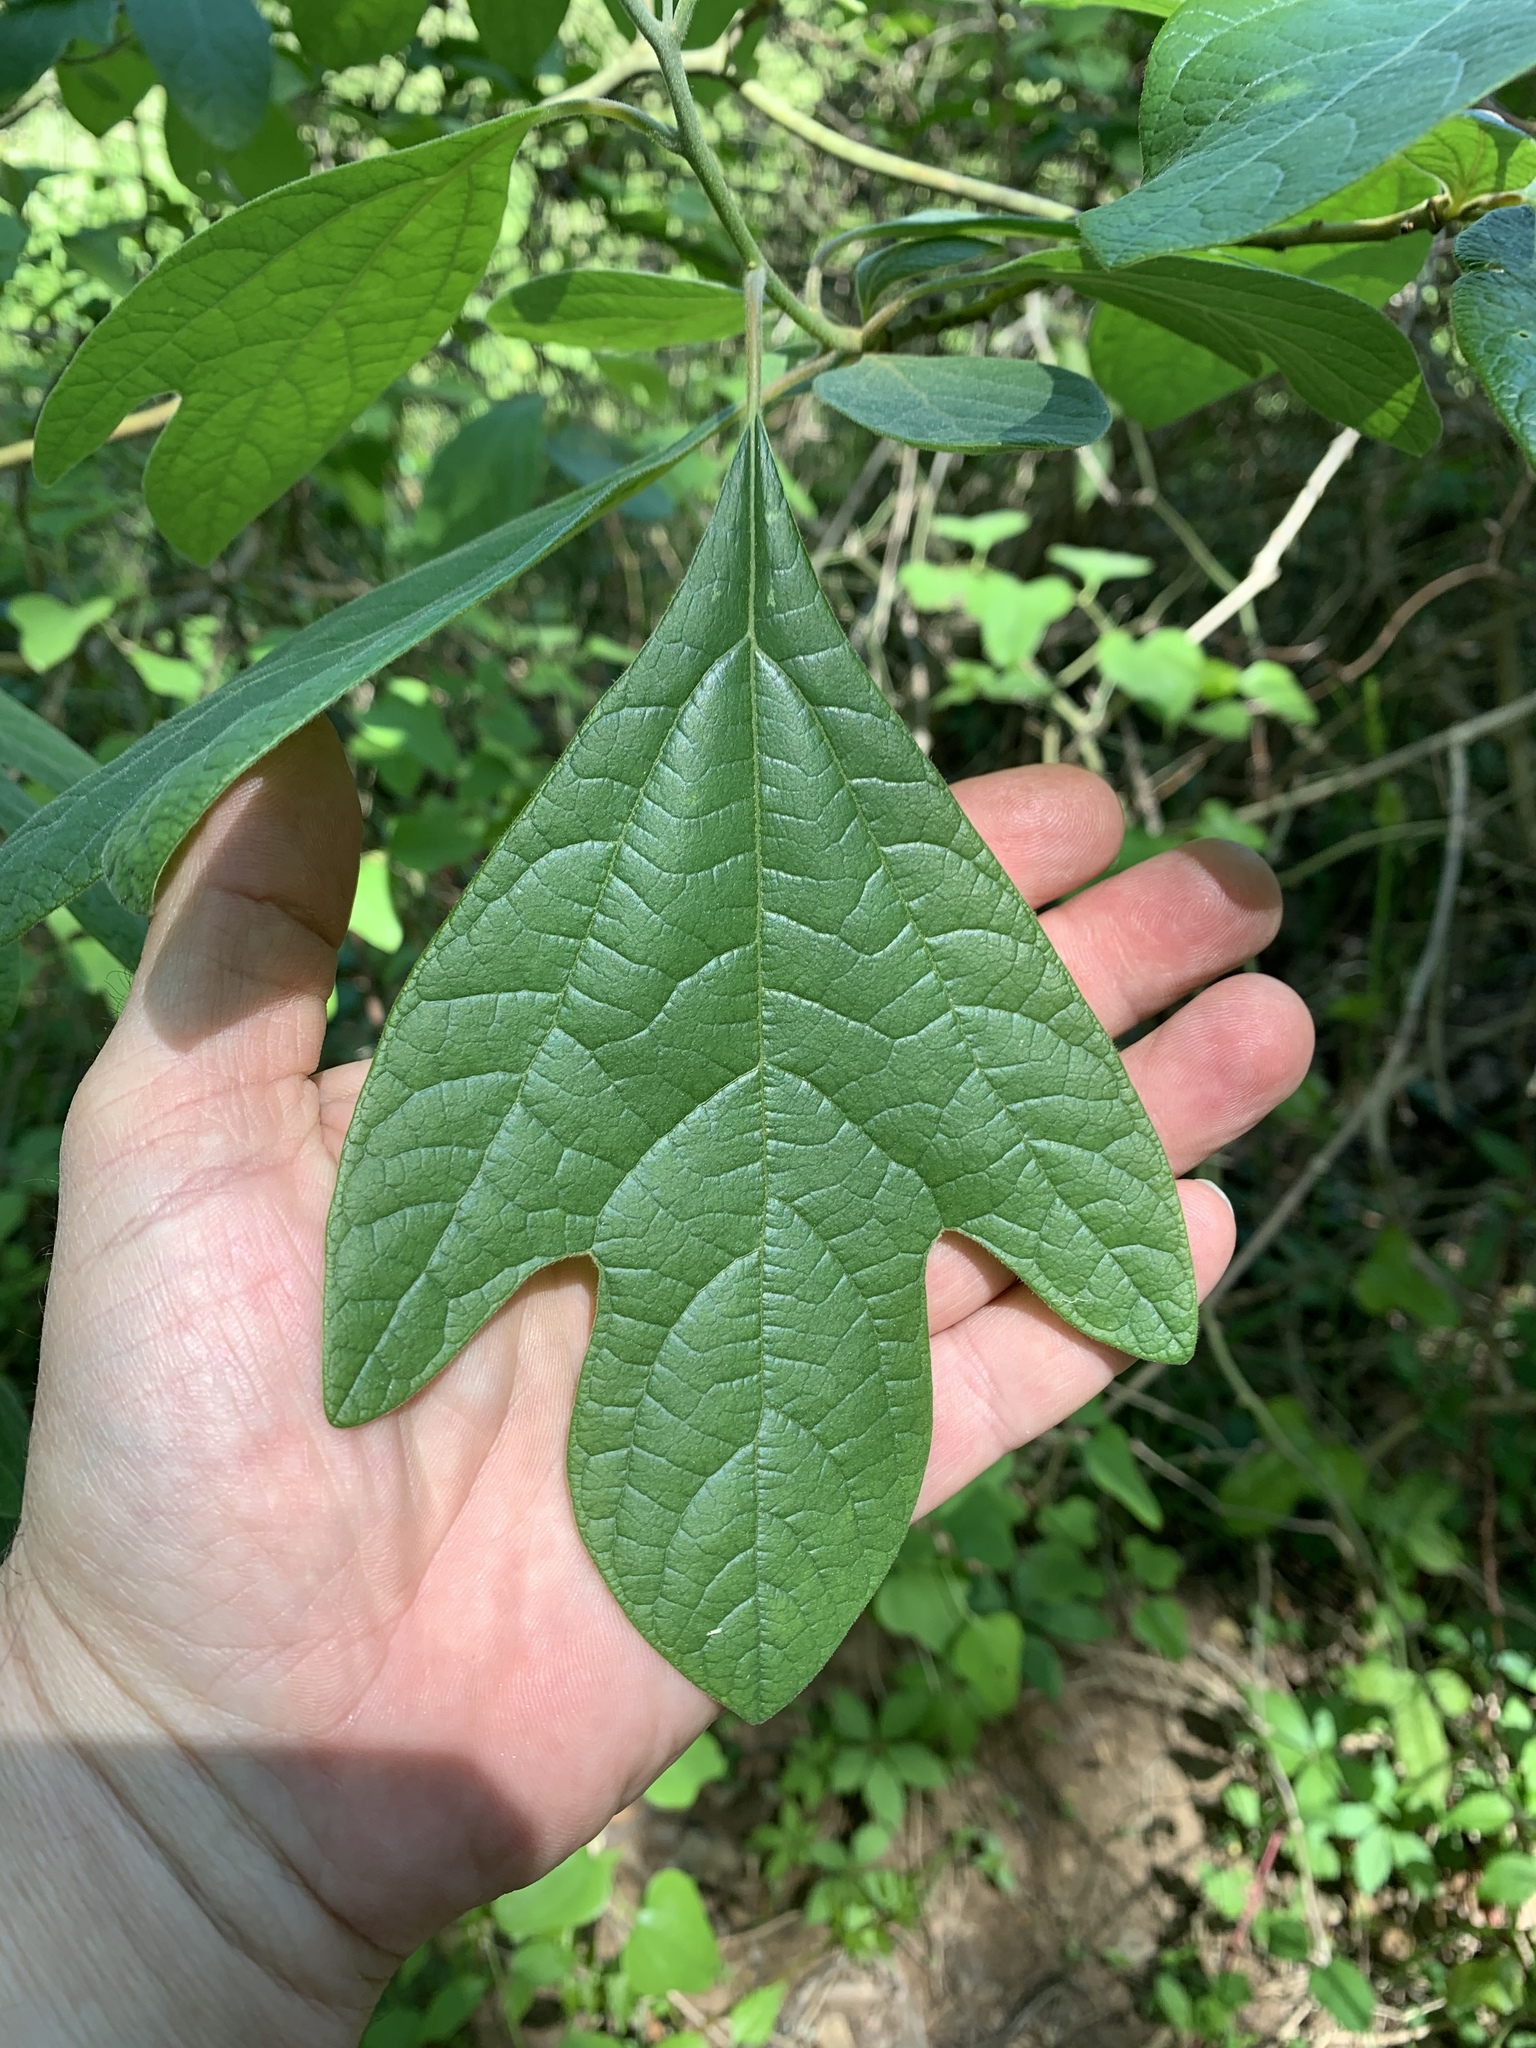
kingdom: Plantae
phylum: Tracheophyta
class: Magnoliopsida
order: Laurales
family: Lauraceae
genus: Sassafras
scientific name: Sassafras albidum
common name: Sassafras
